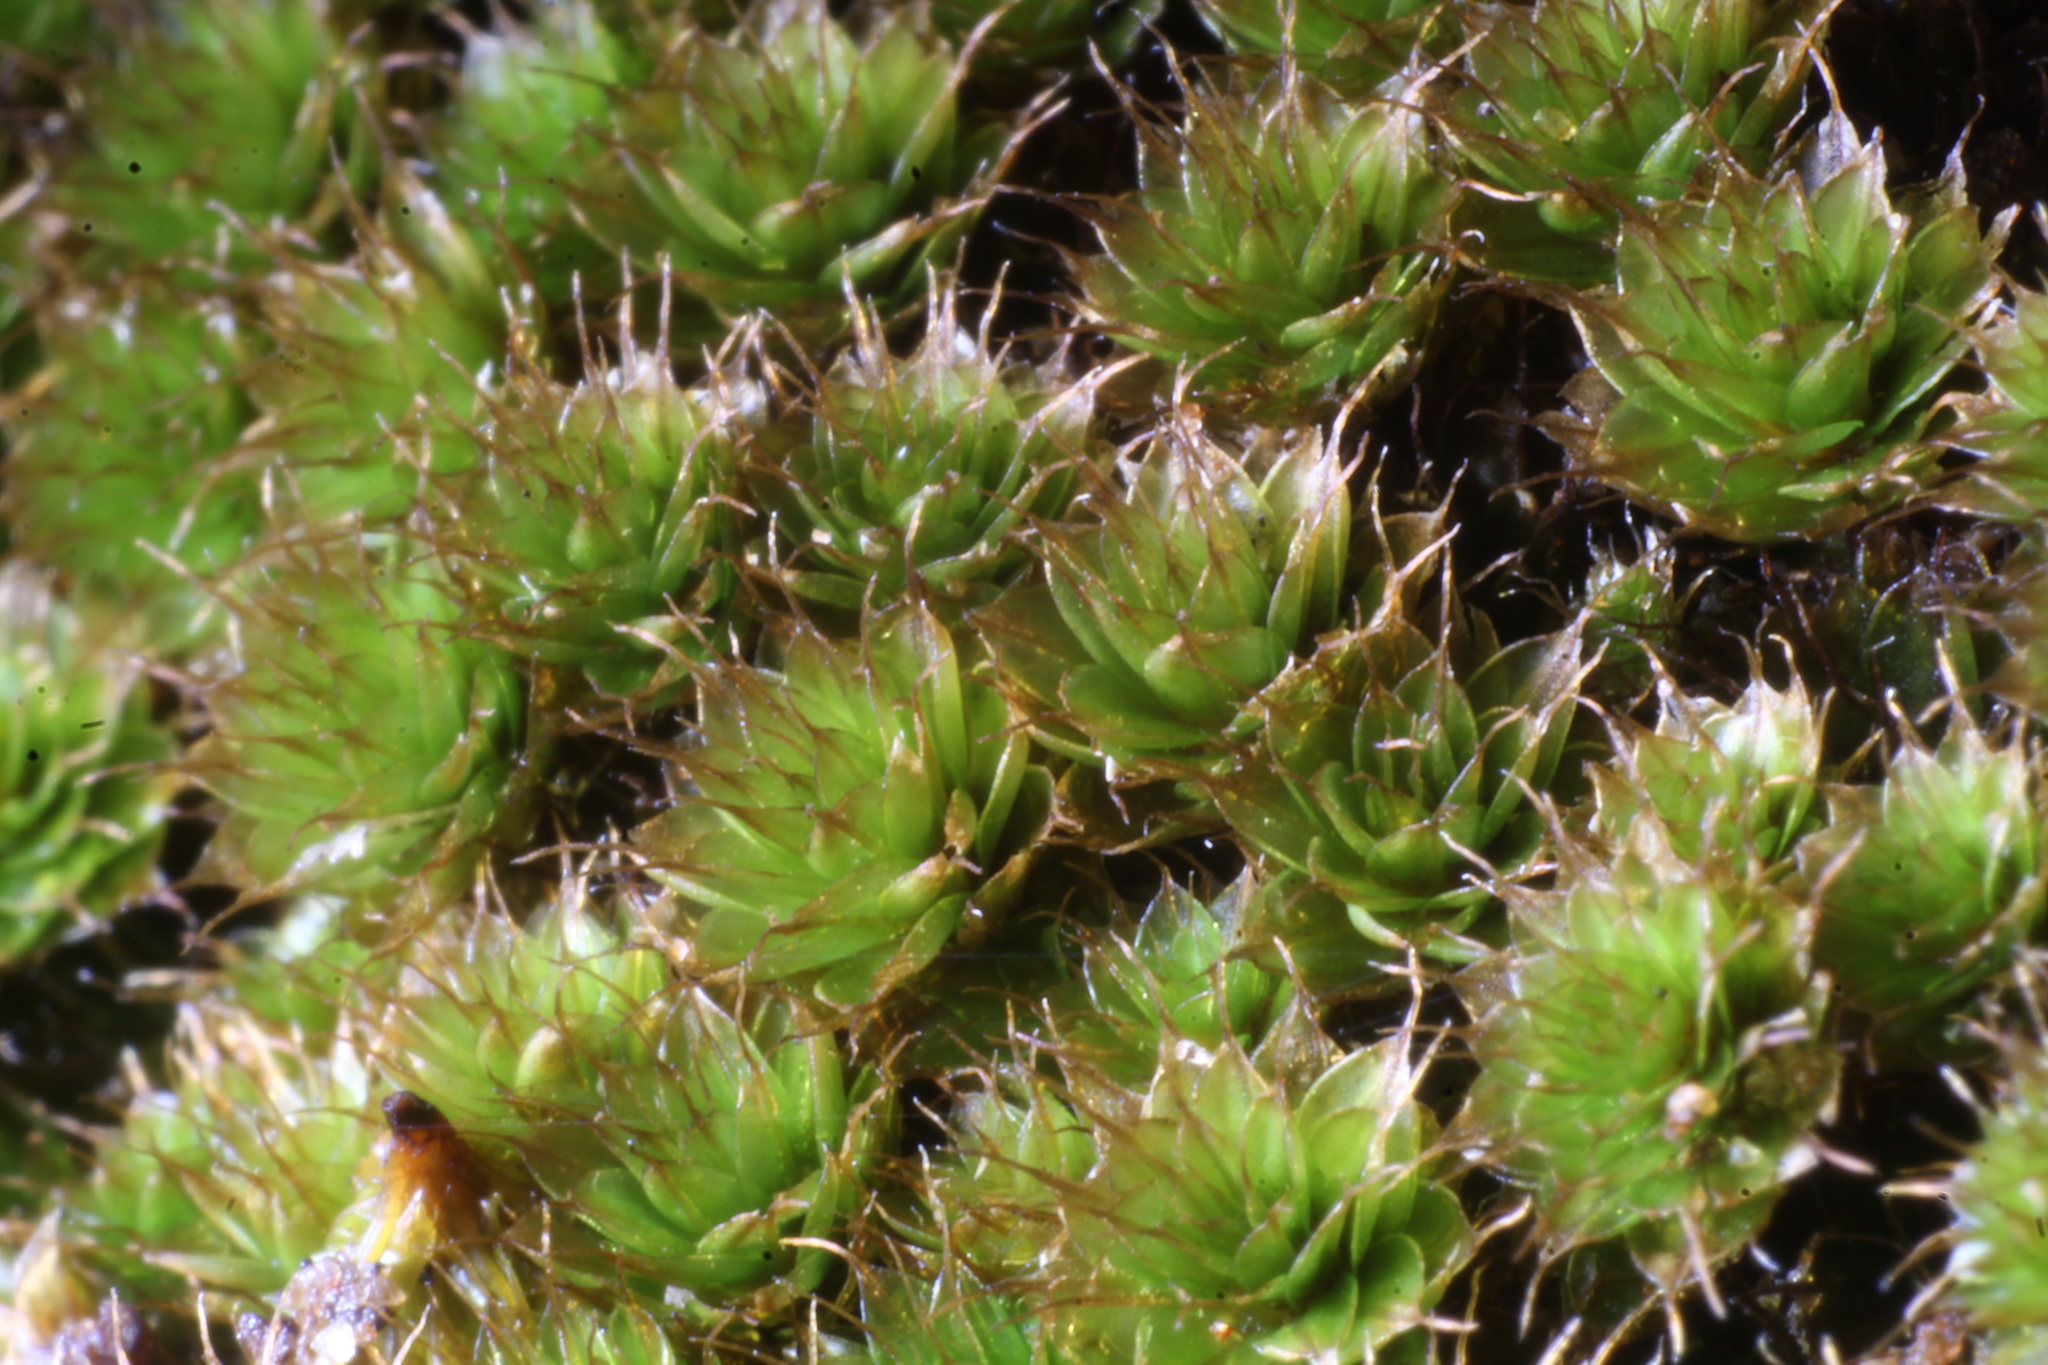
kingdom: Plantae
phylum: Bryophyta
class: Bryopsida
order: Bryales
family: Bryaceae
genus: Rosulabryum
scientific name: Rosulabryum campylothecium
